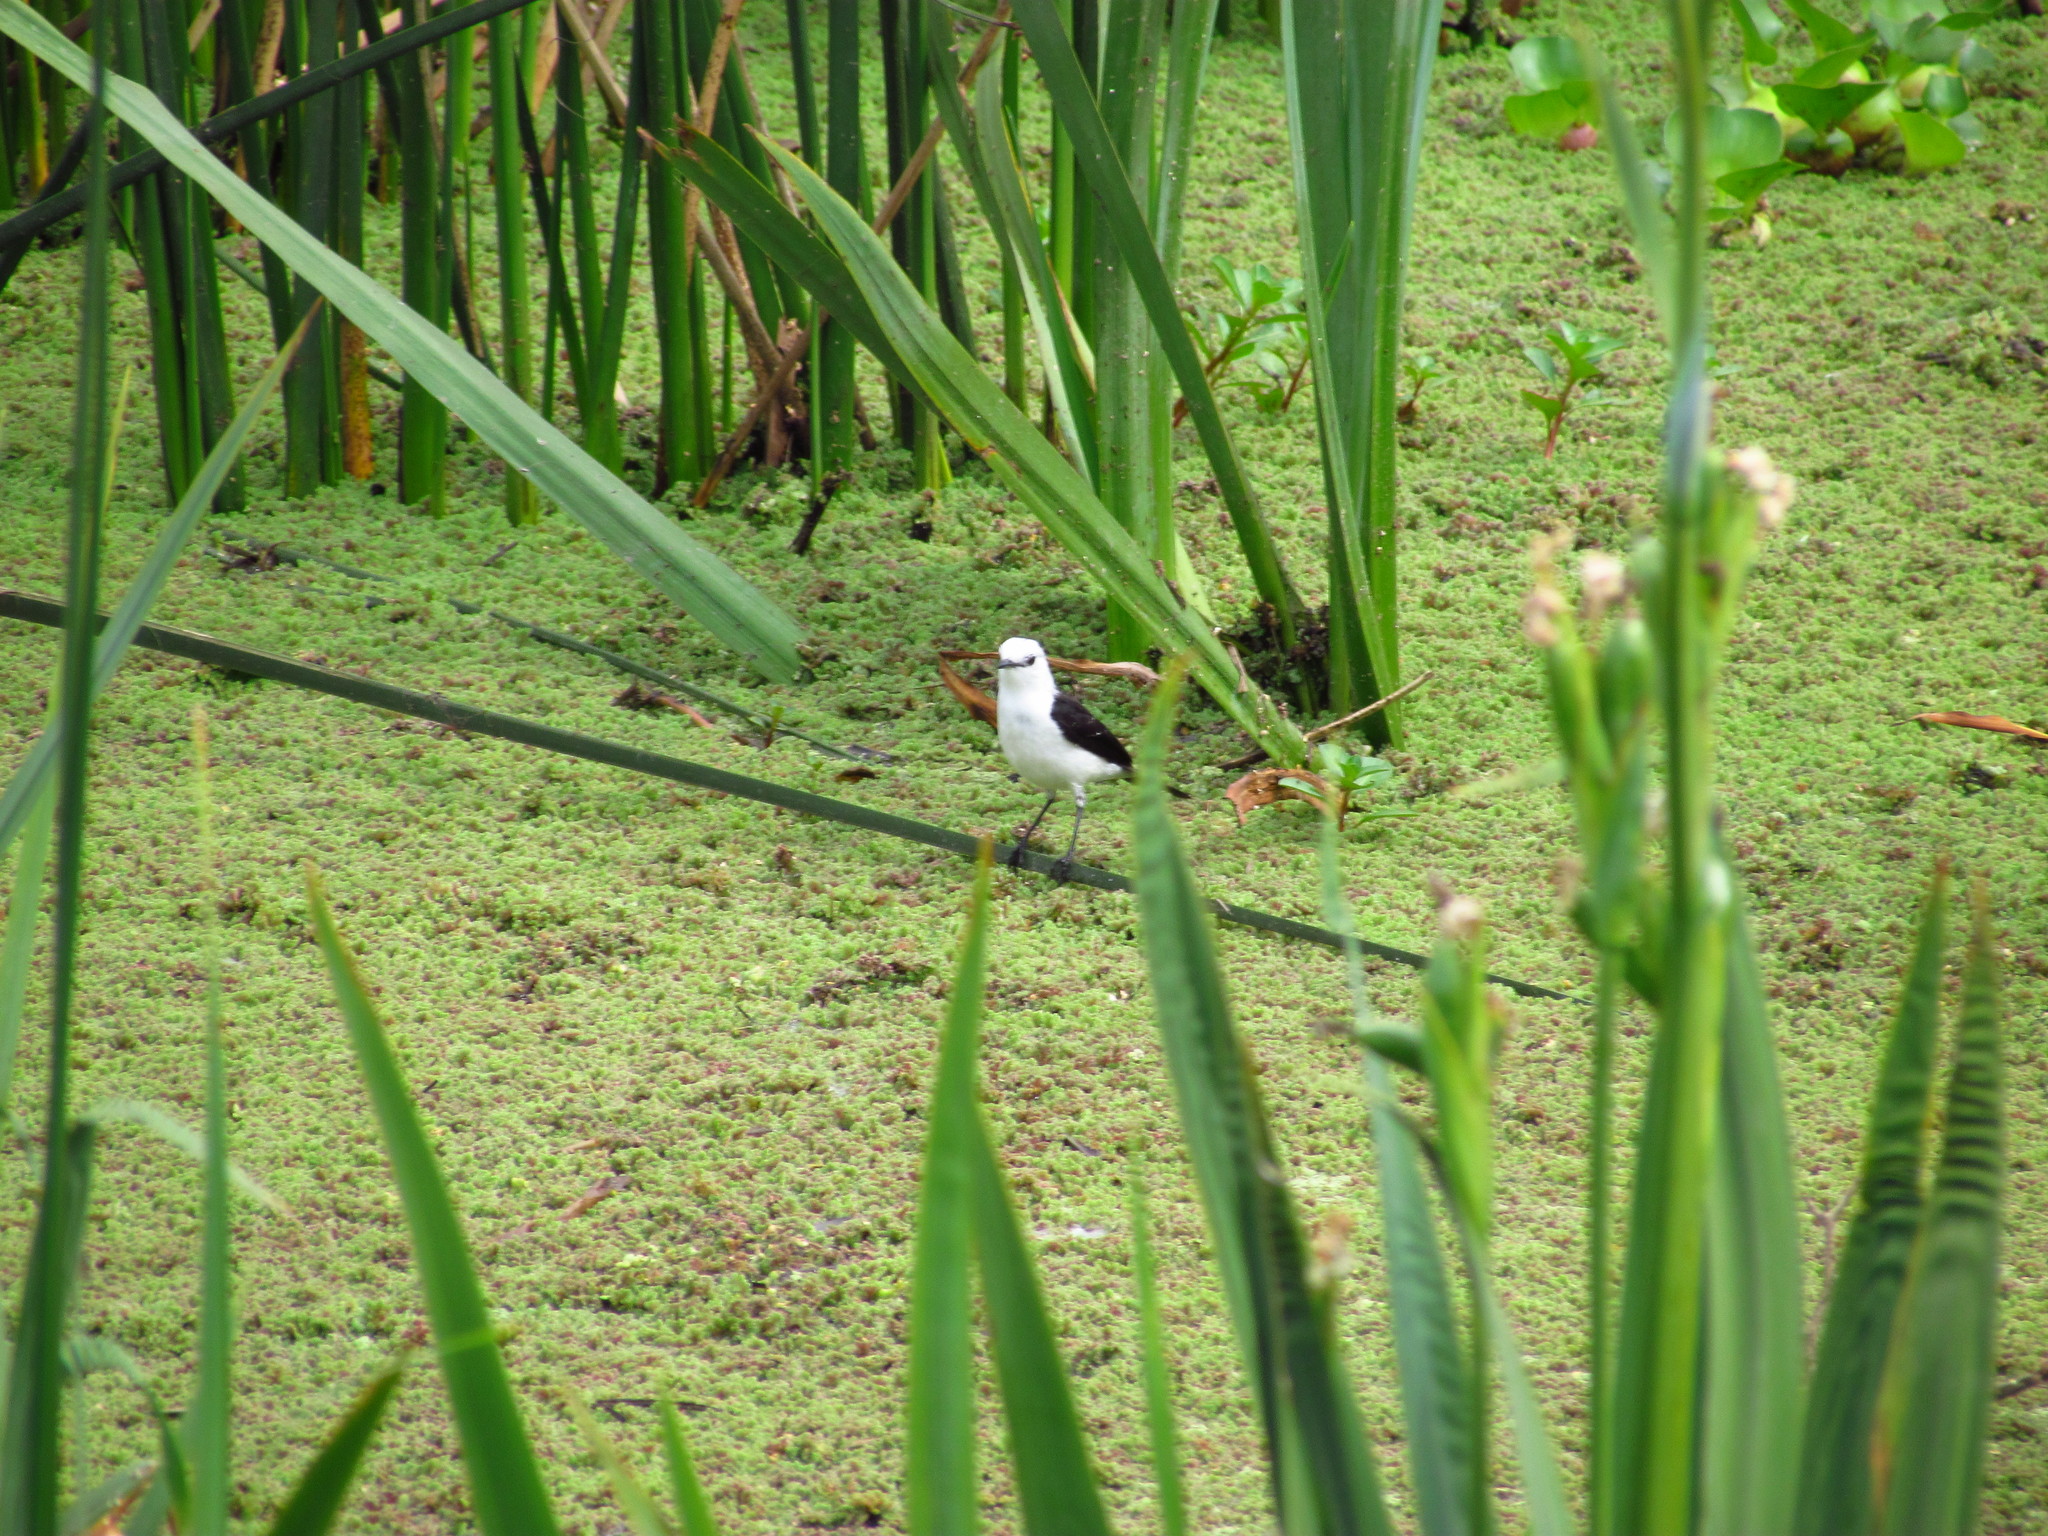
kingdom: Animalia
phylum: Chordata
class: Aves
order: Passeriformes
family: Tyrannidae
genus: Fluvicola
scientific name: Fluvicola pica
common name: Pied water-tyrant
